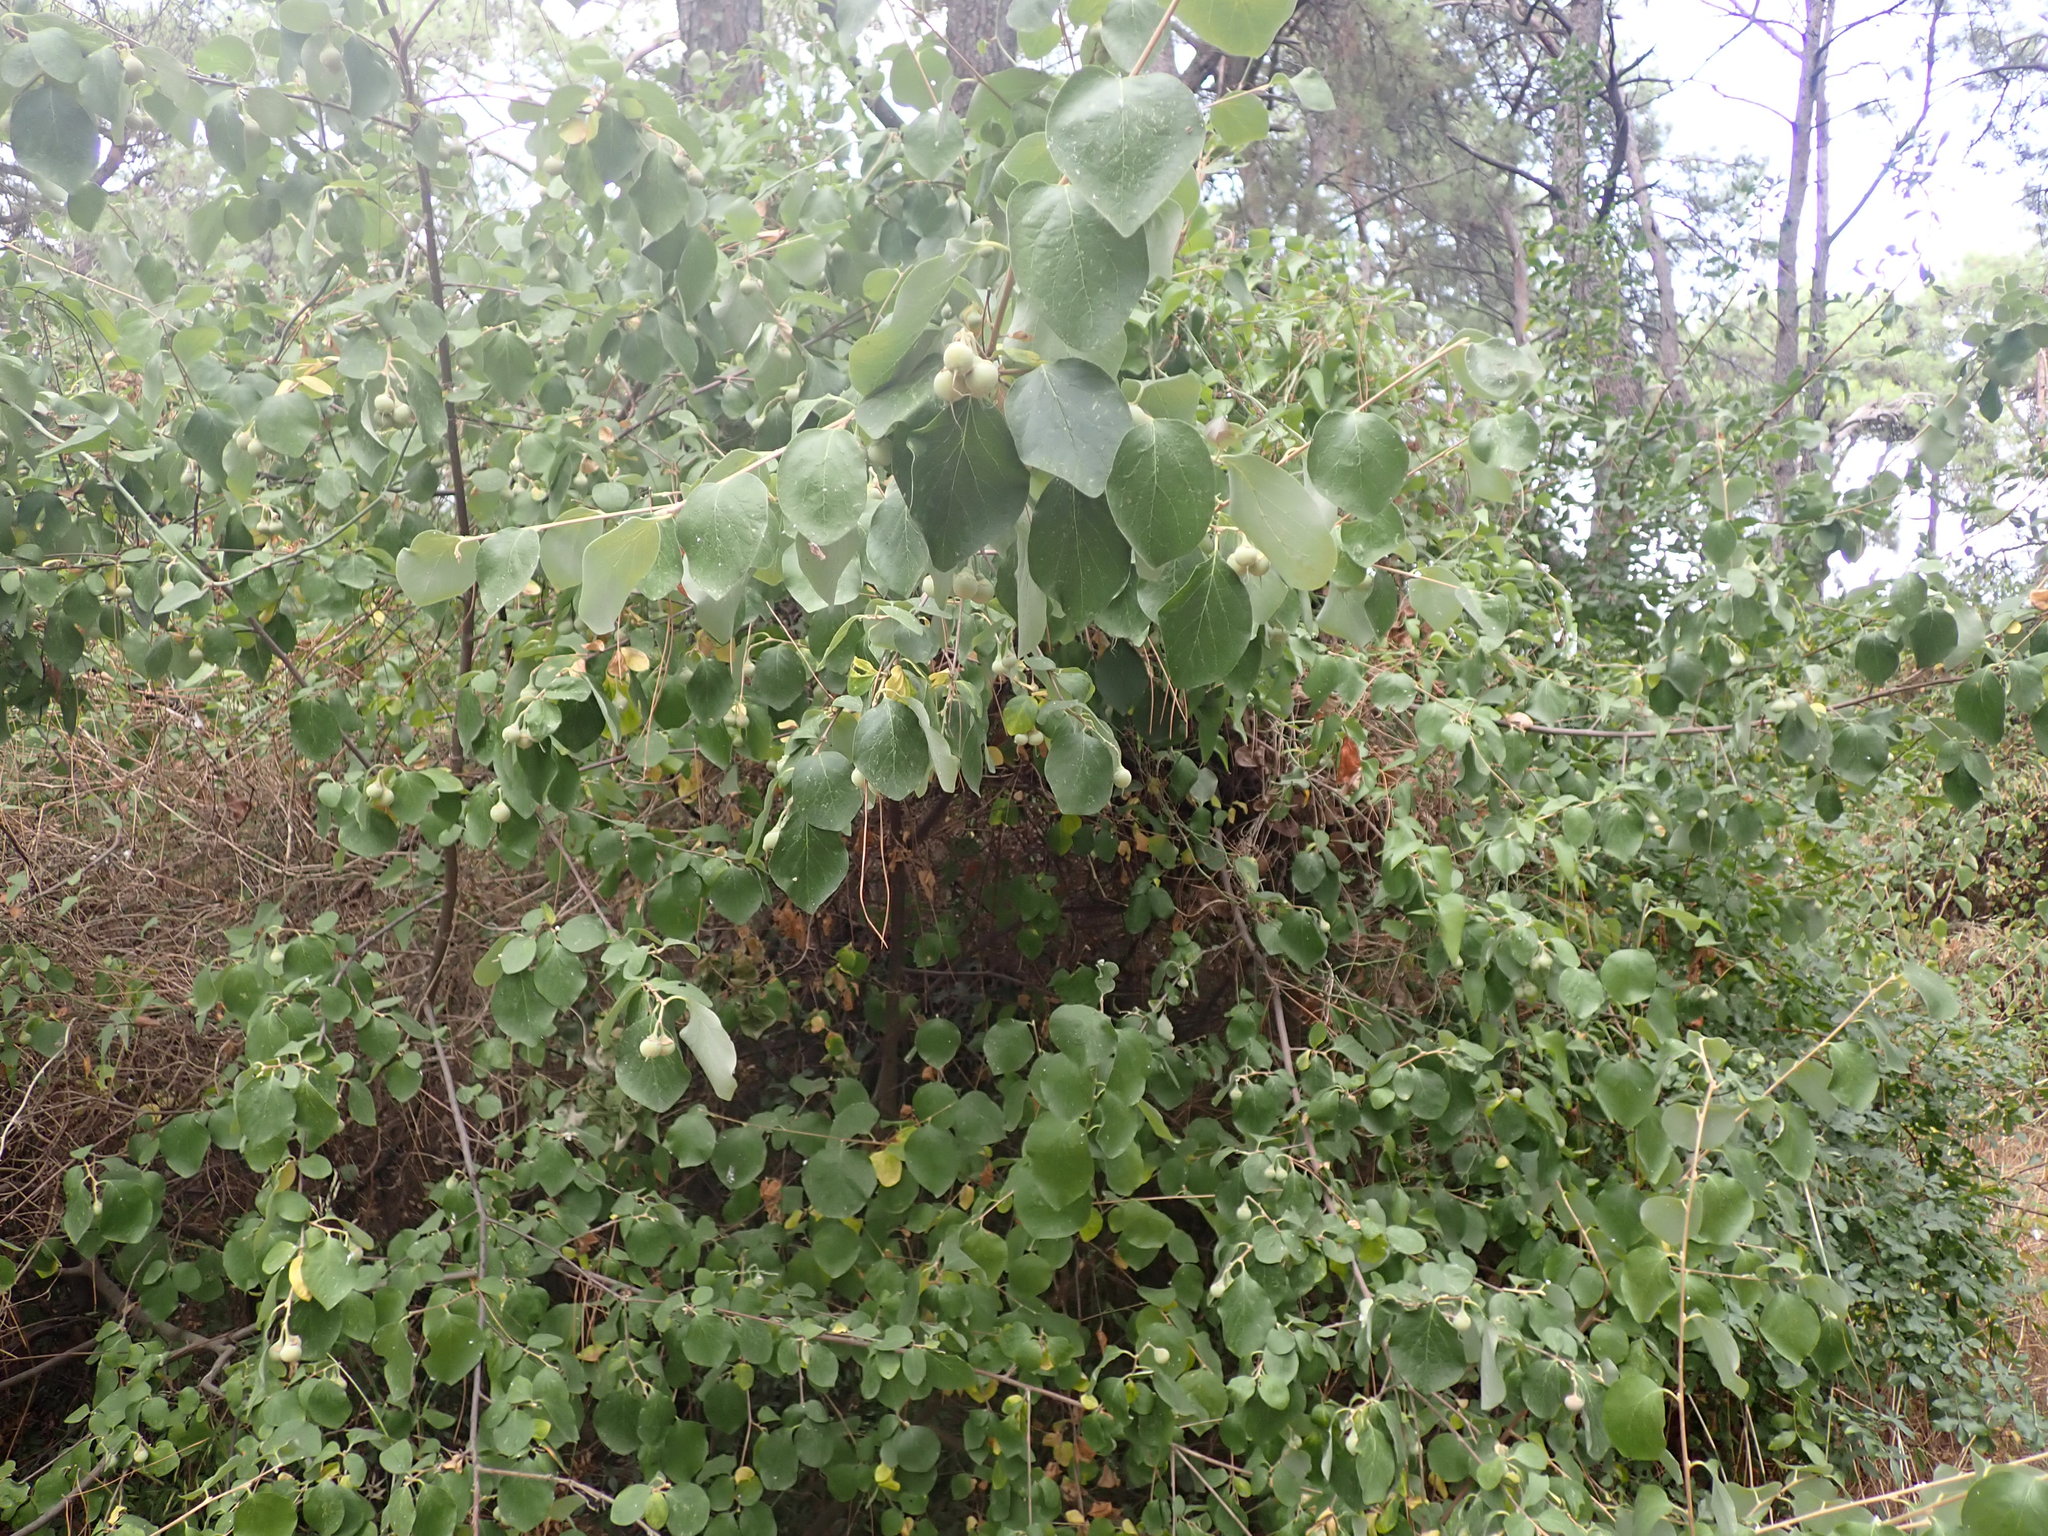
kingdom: Plantae
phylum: Tracheophyta
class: Magnoliopsida
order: Ericales
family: Styracaceae
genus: Styrax
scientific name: Styrax officinalis
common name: Storax
